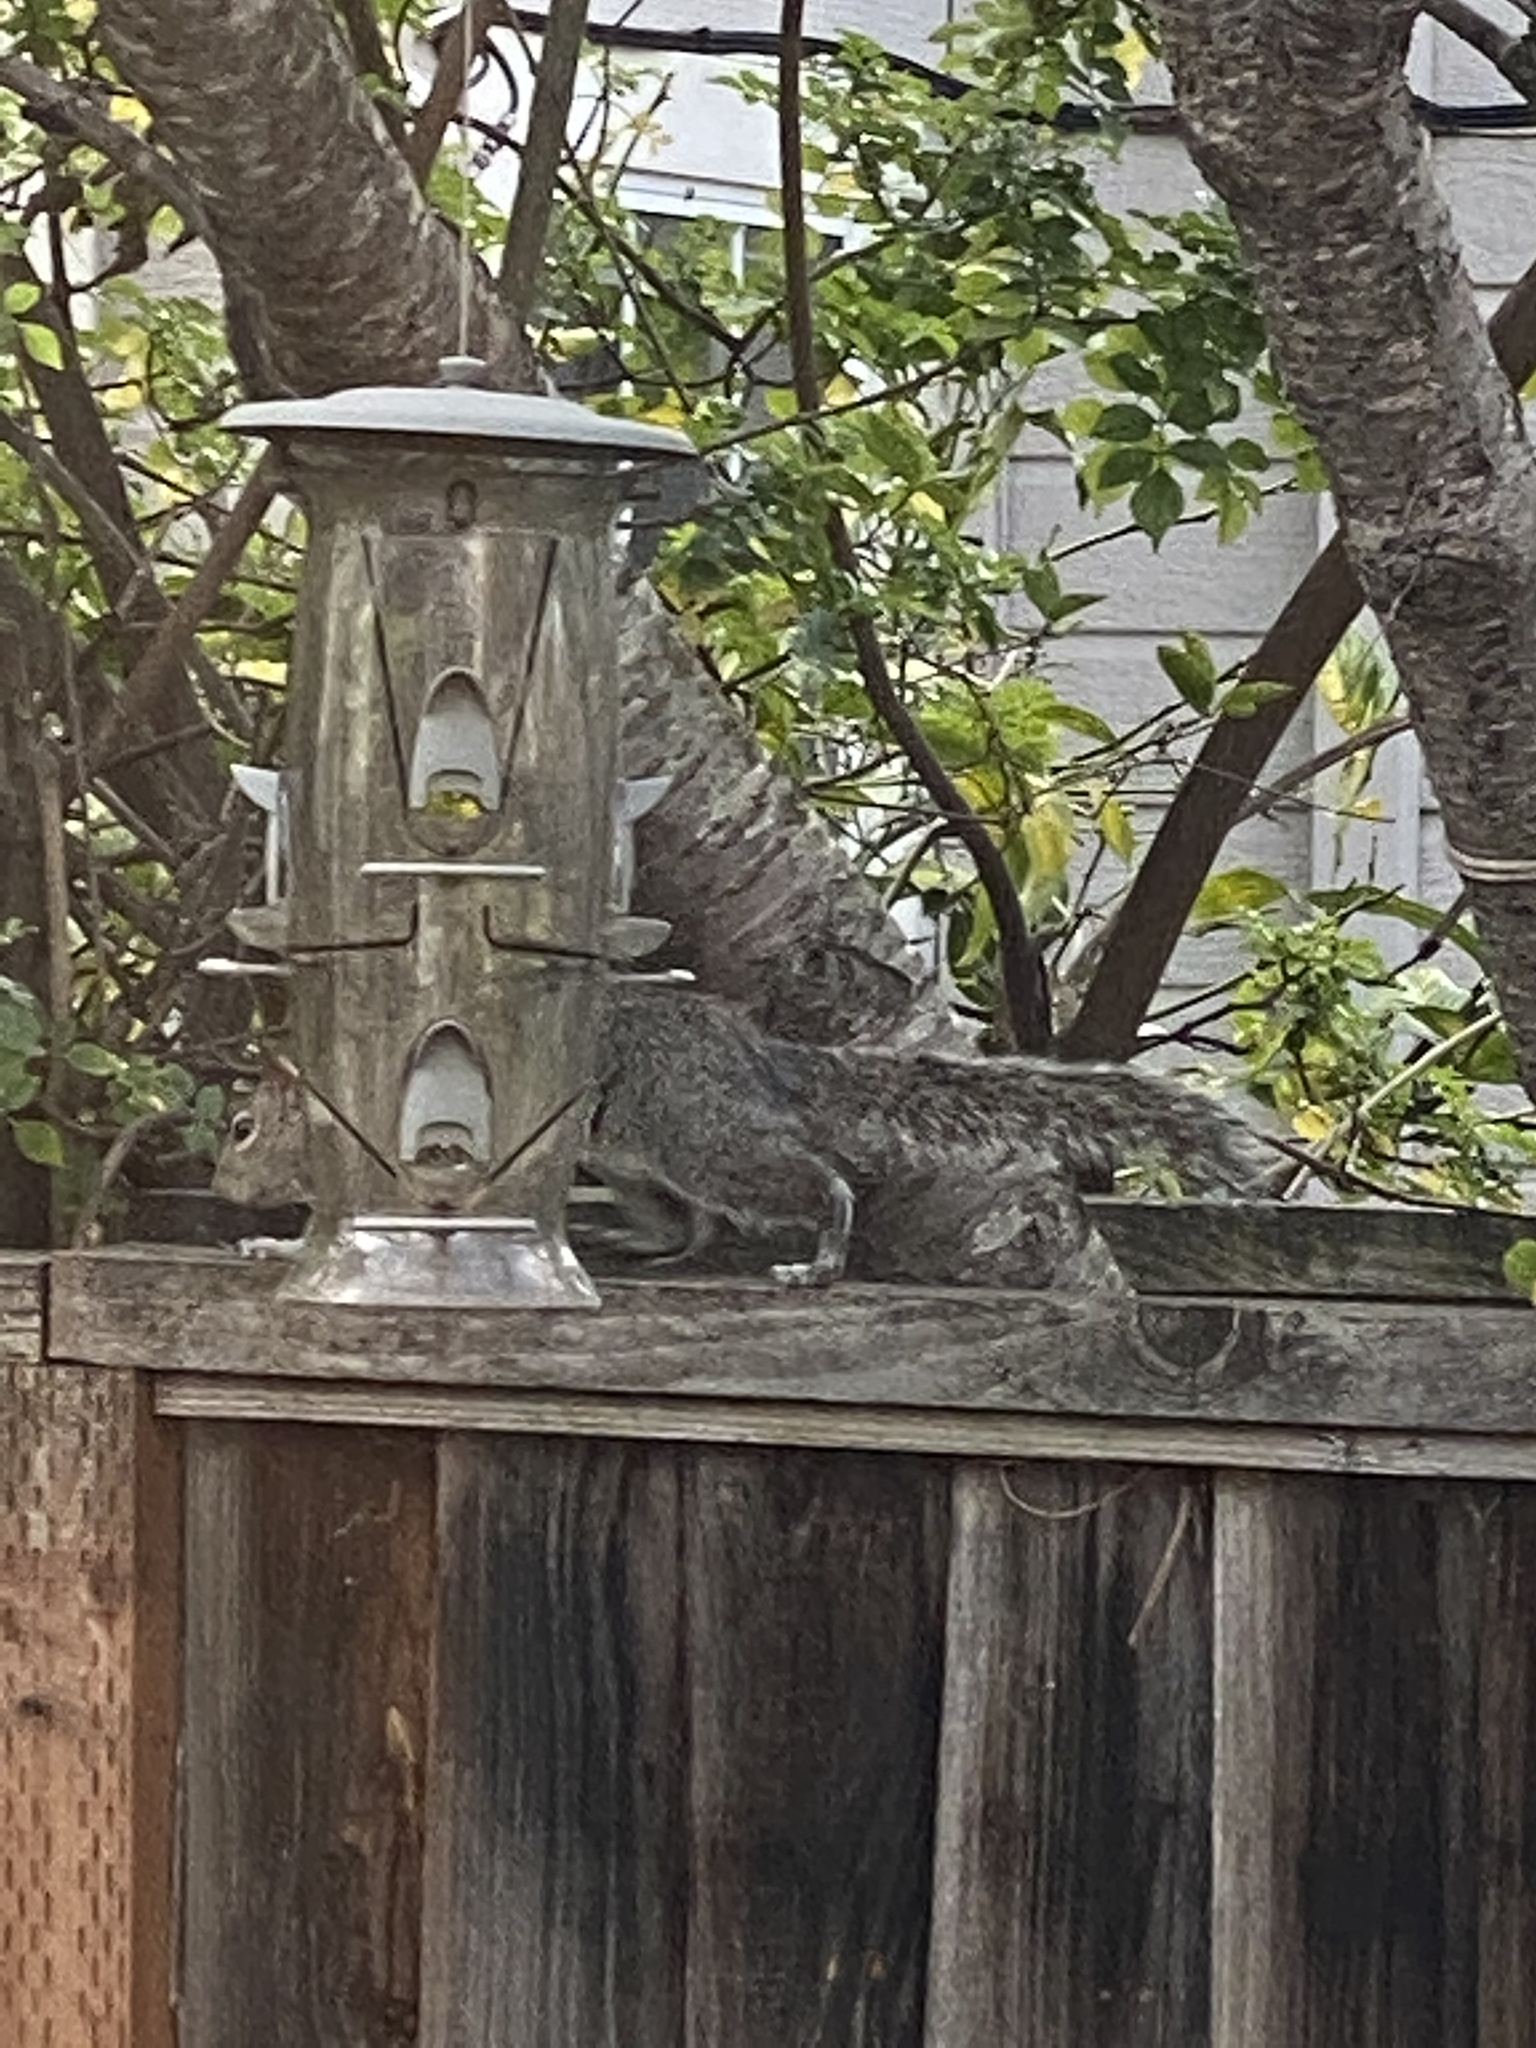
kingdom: Animalia
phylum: Chordata
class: Mammalia
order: Rodentia
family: Sciuridae
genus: Sciurus
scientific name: Sciurus carolinensis
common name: Eastern gray squirrel
